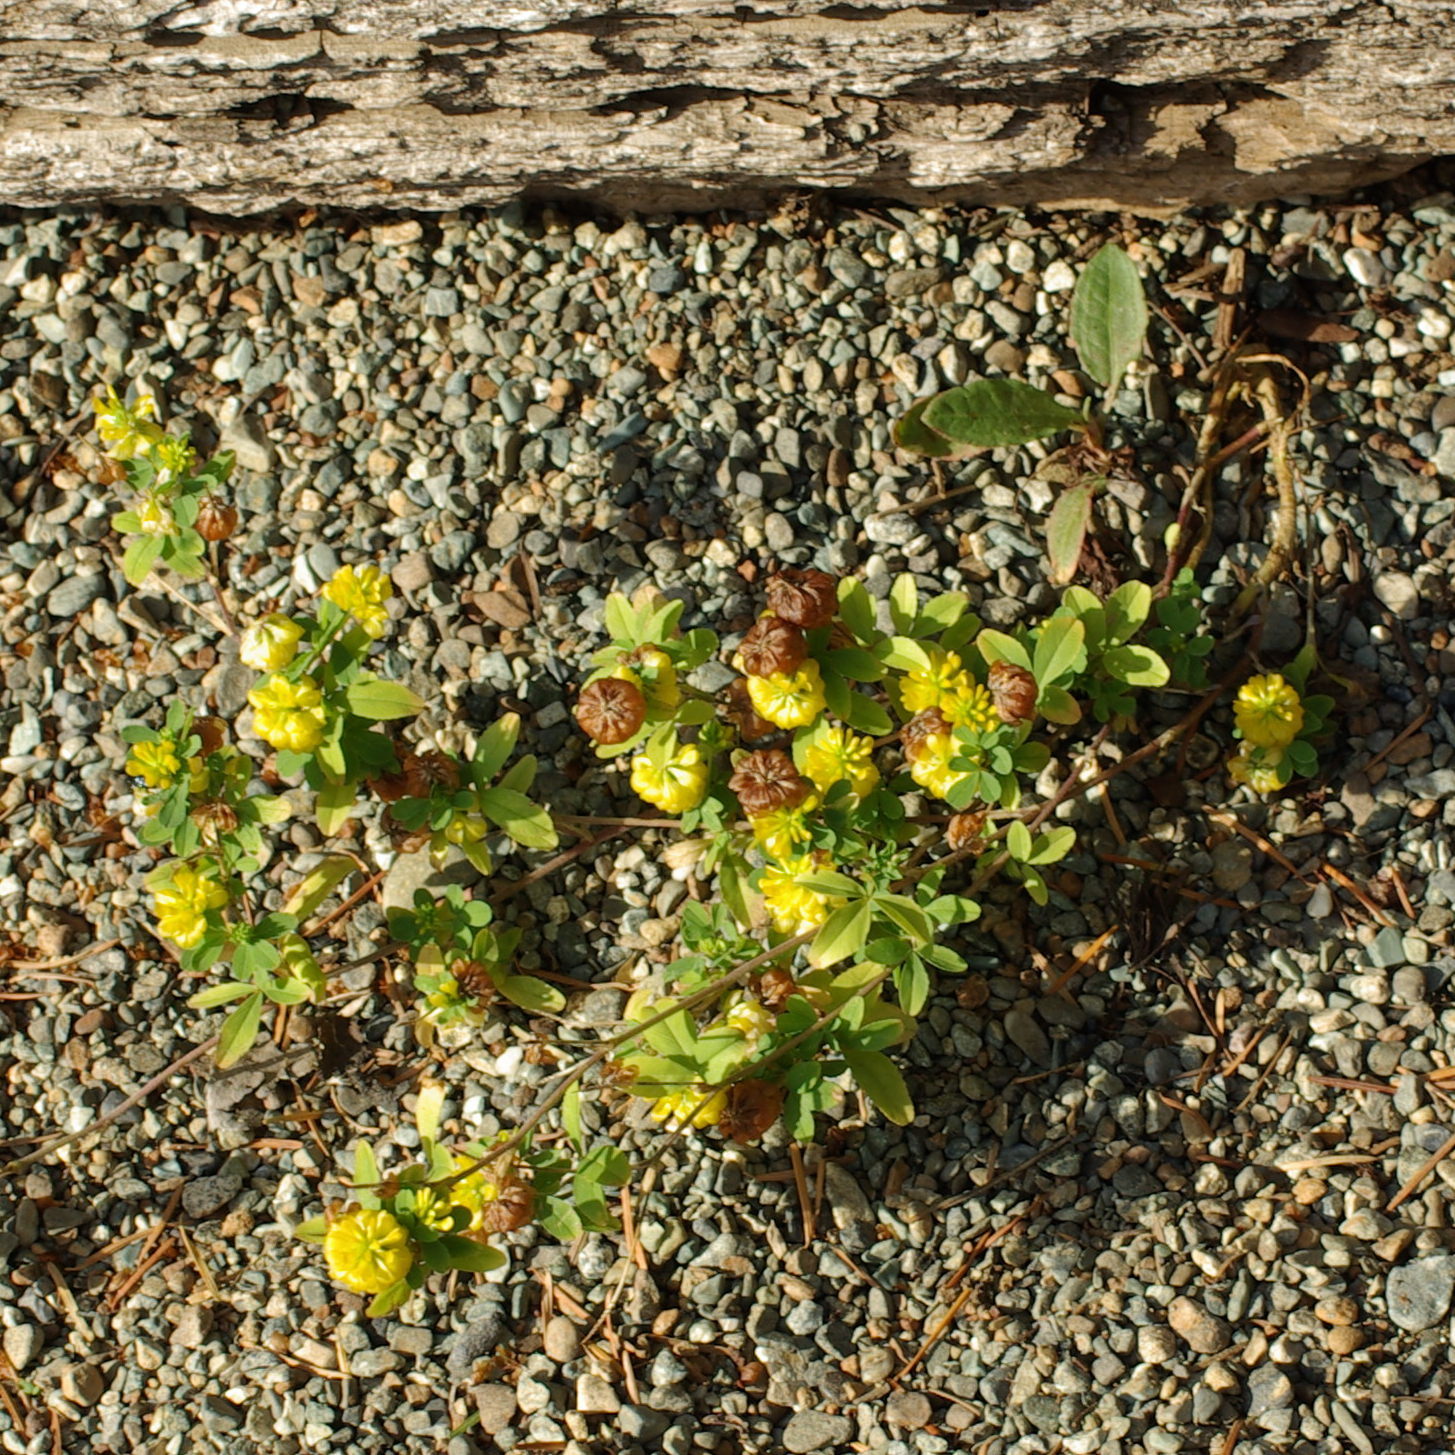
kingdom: Plantae
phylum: Tracheophyta
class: Magnoliopsida
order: Fabales
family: Fabaceae
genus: Trifolium
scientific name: Trifolium aureum
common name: Golden clover
